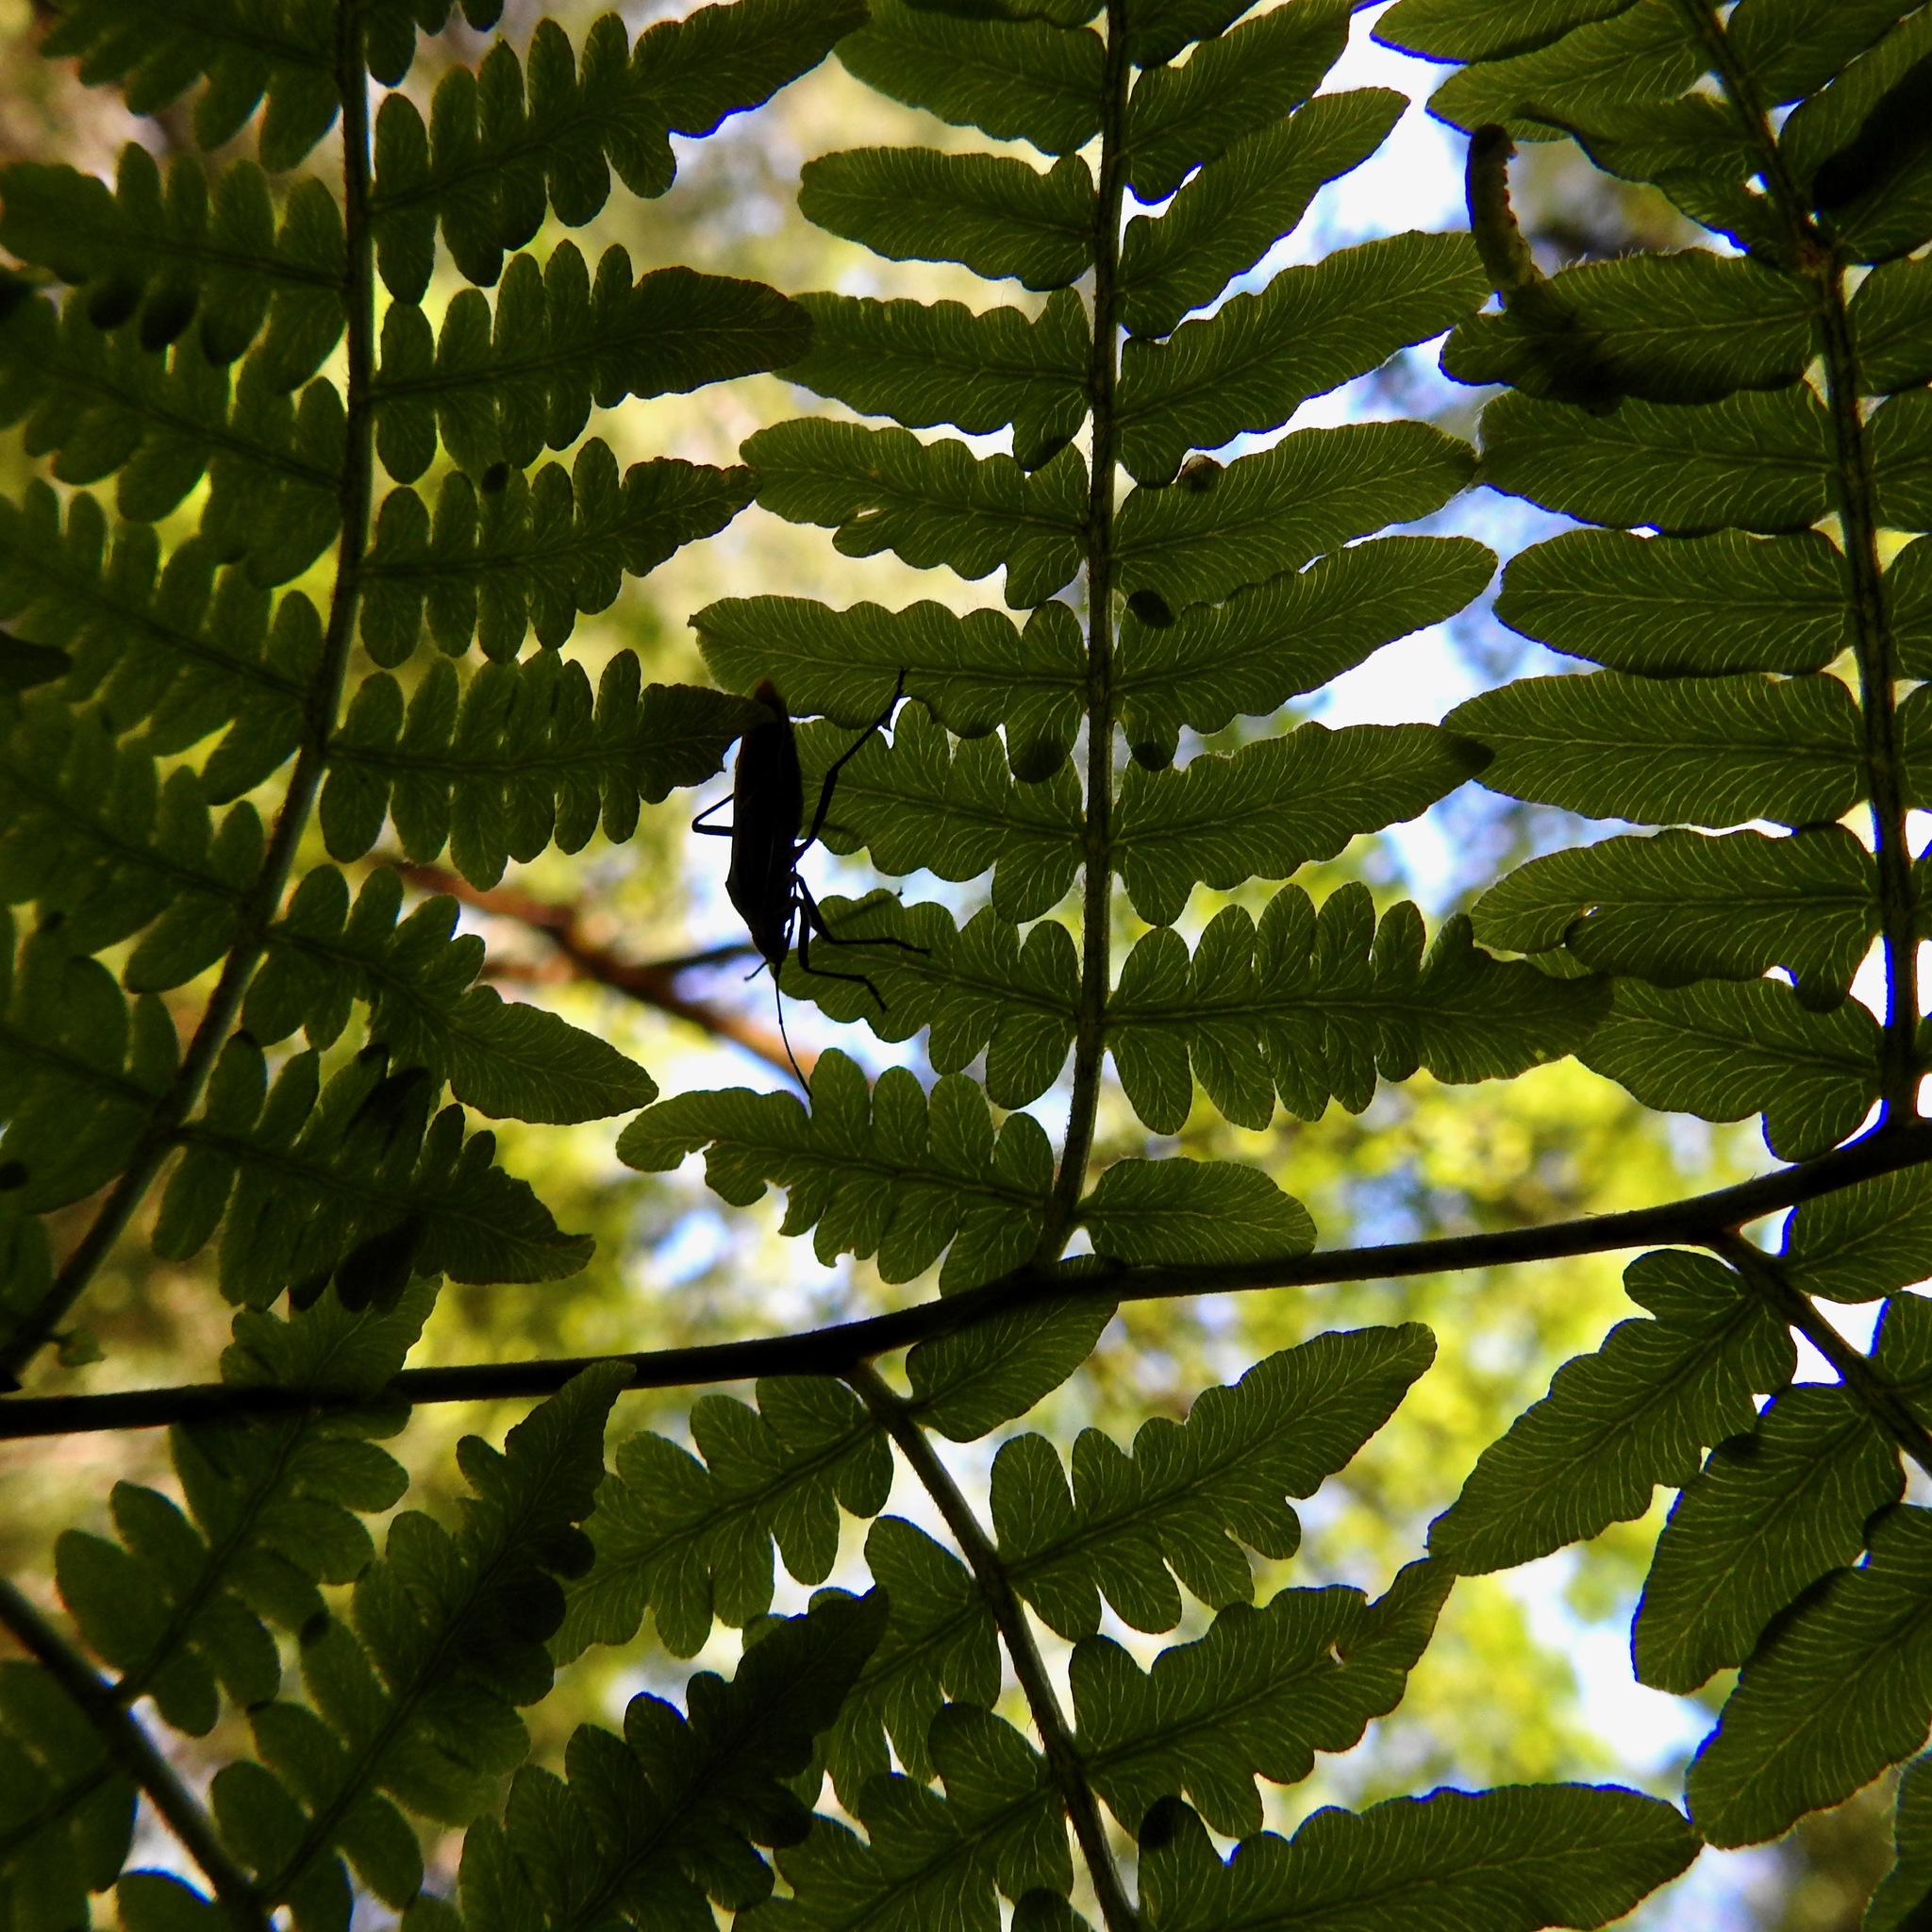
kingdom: Animalia
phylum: Arthropoda
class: Insecta
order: Hemiptera
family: Rhopalidae
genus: Boisea
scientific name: Boisea rubrolineata
